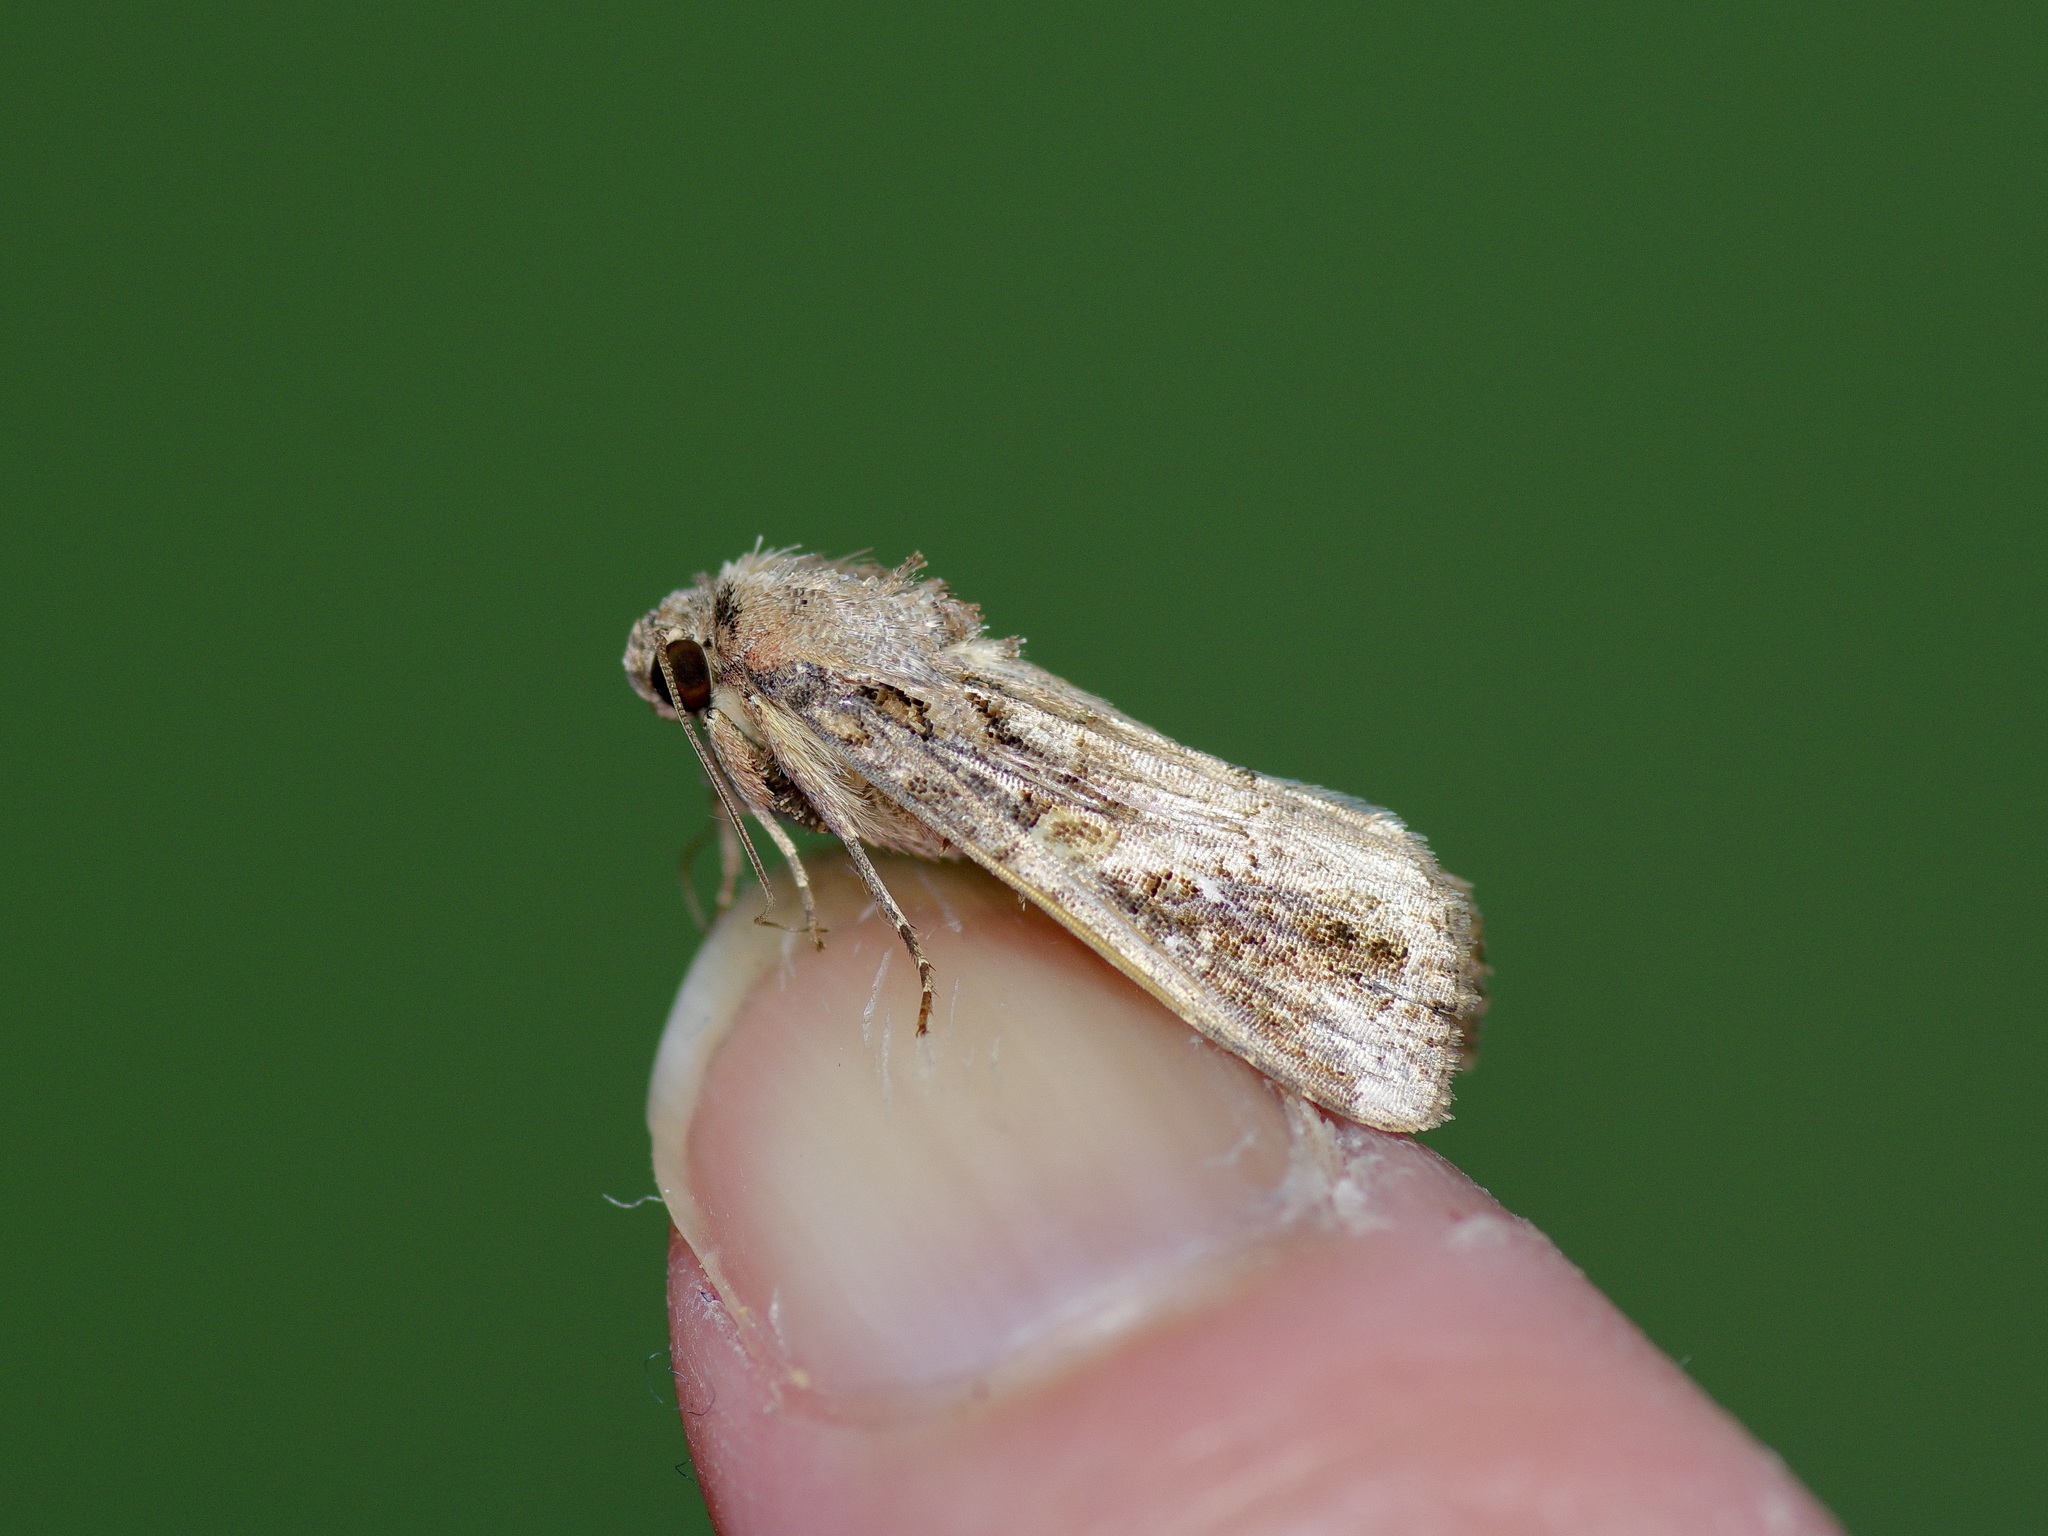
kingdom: Animalia
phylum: Arthropoda
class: Insecta
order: Lepidoptera
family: Noctuidae
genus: Spodoptera
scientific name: Spodoptera frugiperda
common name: Fall armyworm
